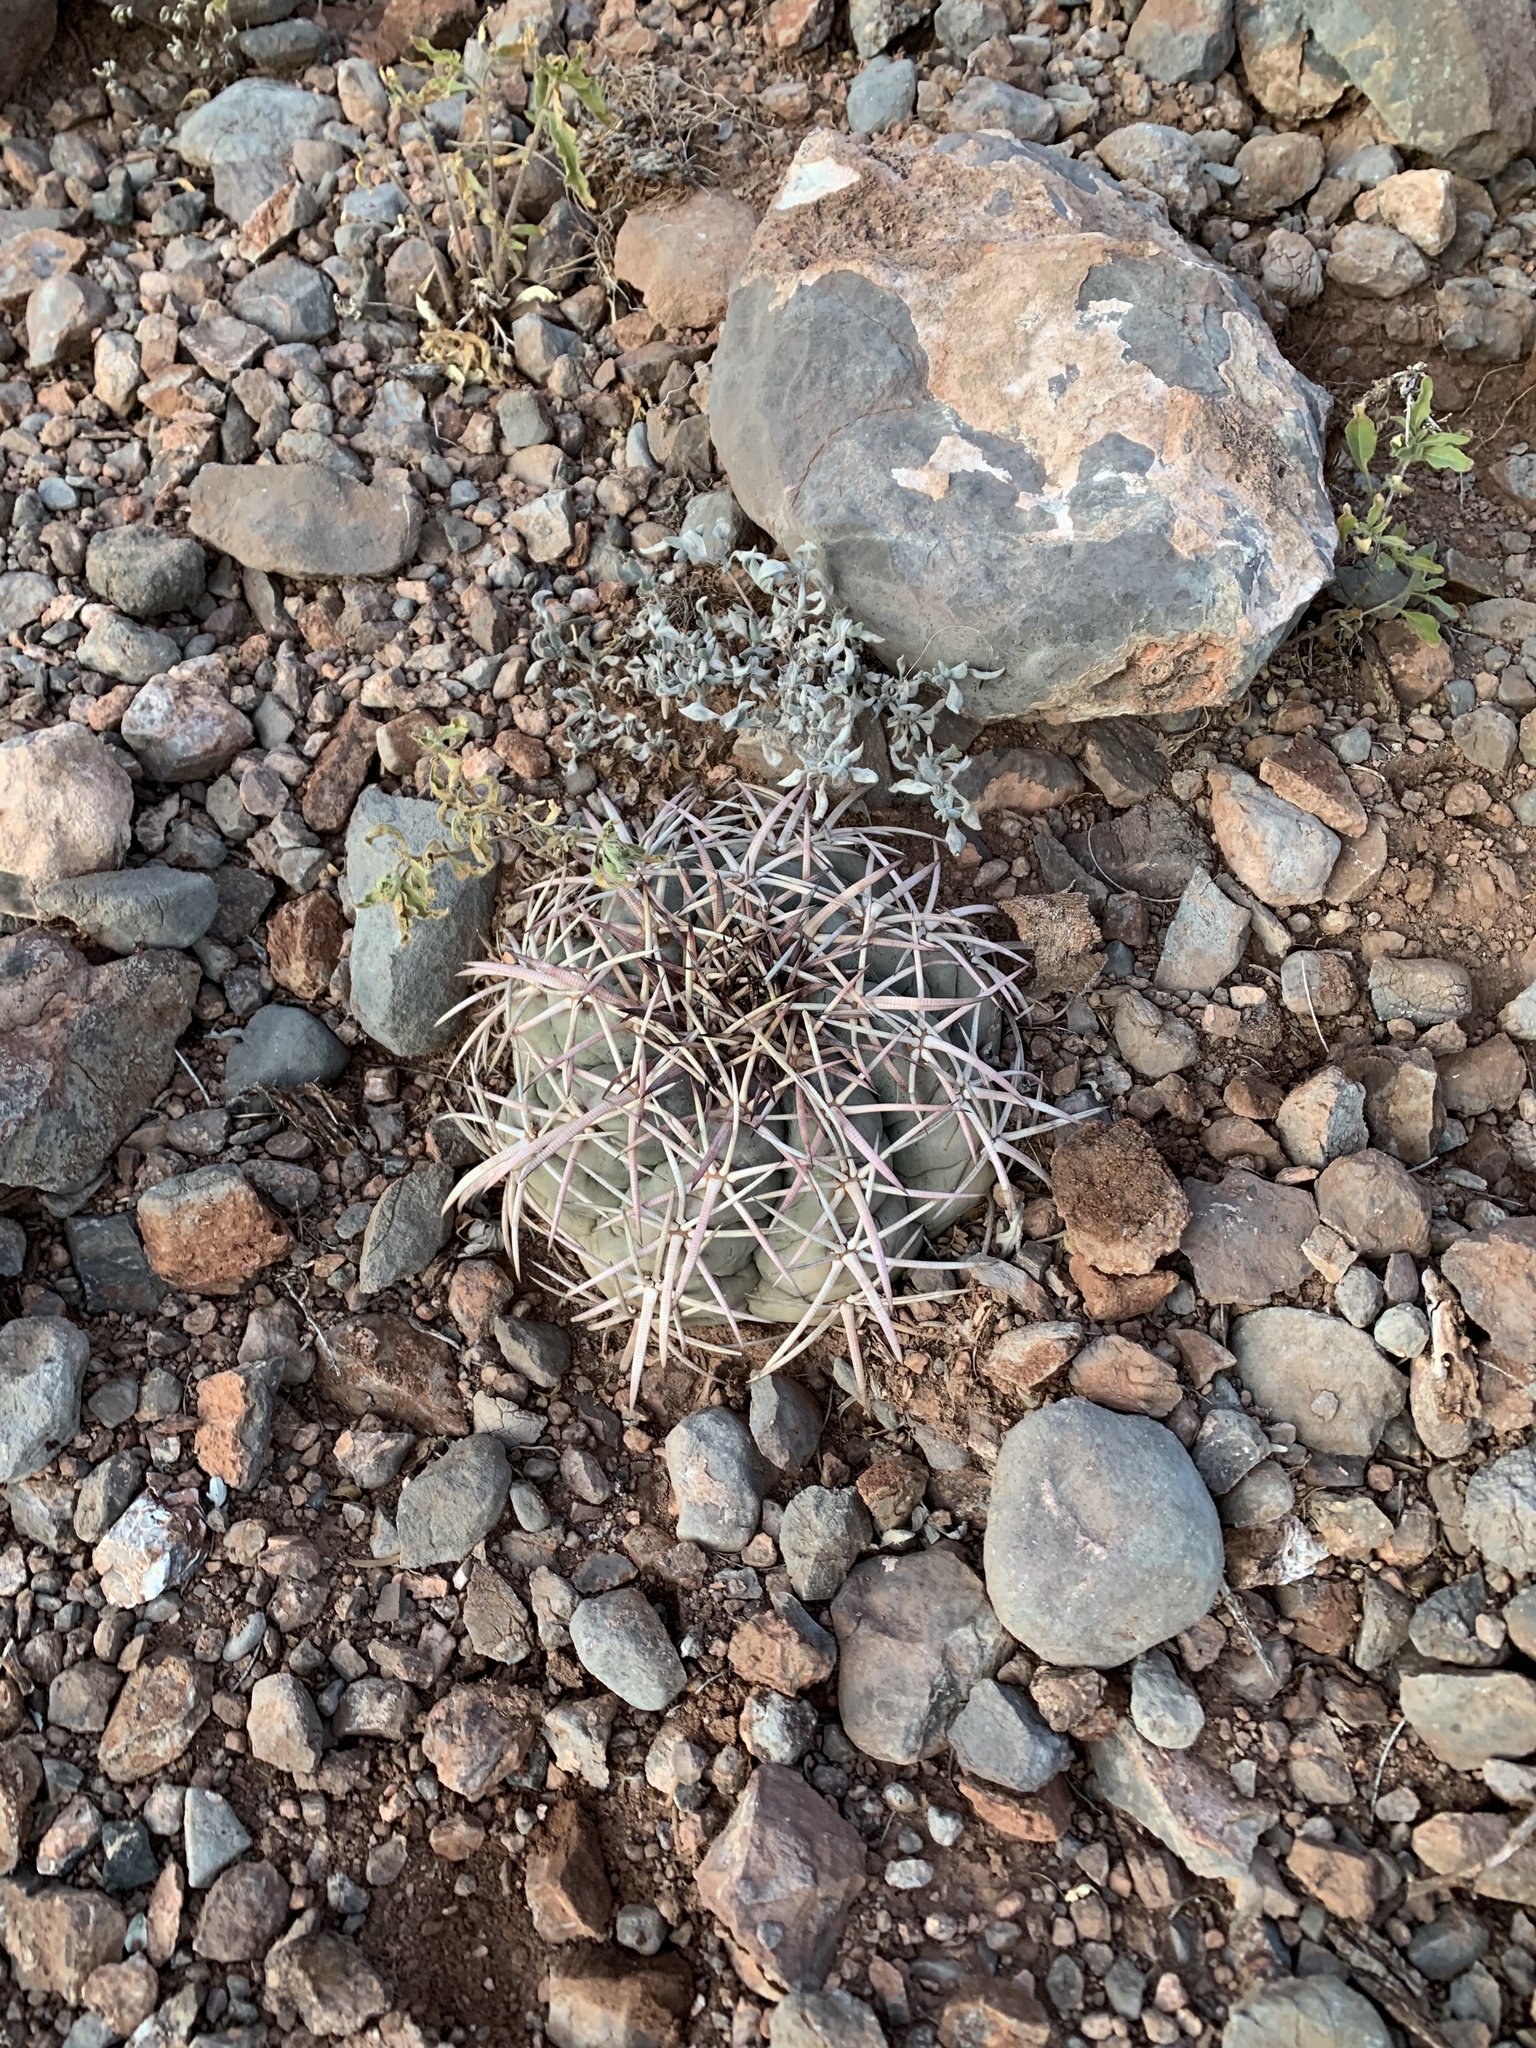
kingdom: Plantae
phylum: Tracheophyta
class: Magnoliopsida
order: Caryophyllales
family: Cactaceae
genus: Echinocactus
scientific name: Echinocactus horizonthalonius
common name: Devilshead
